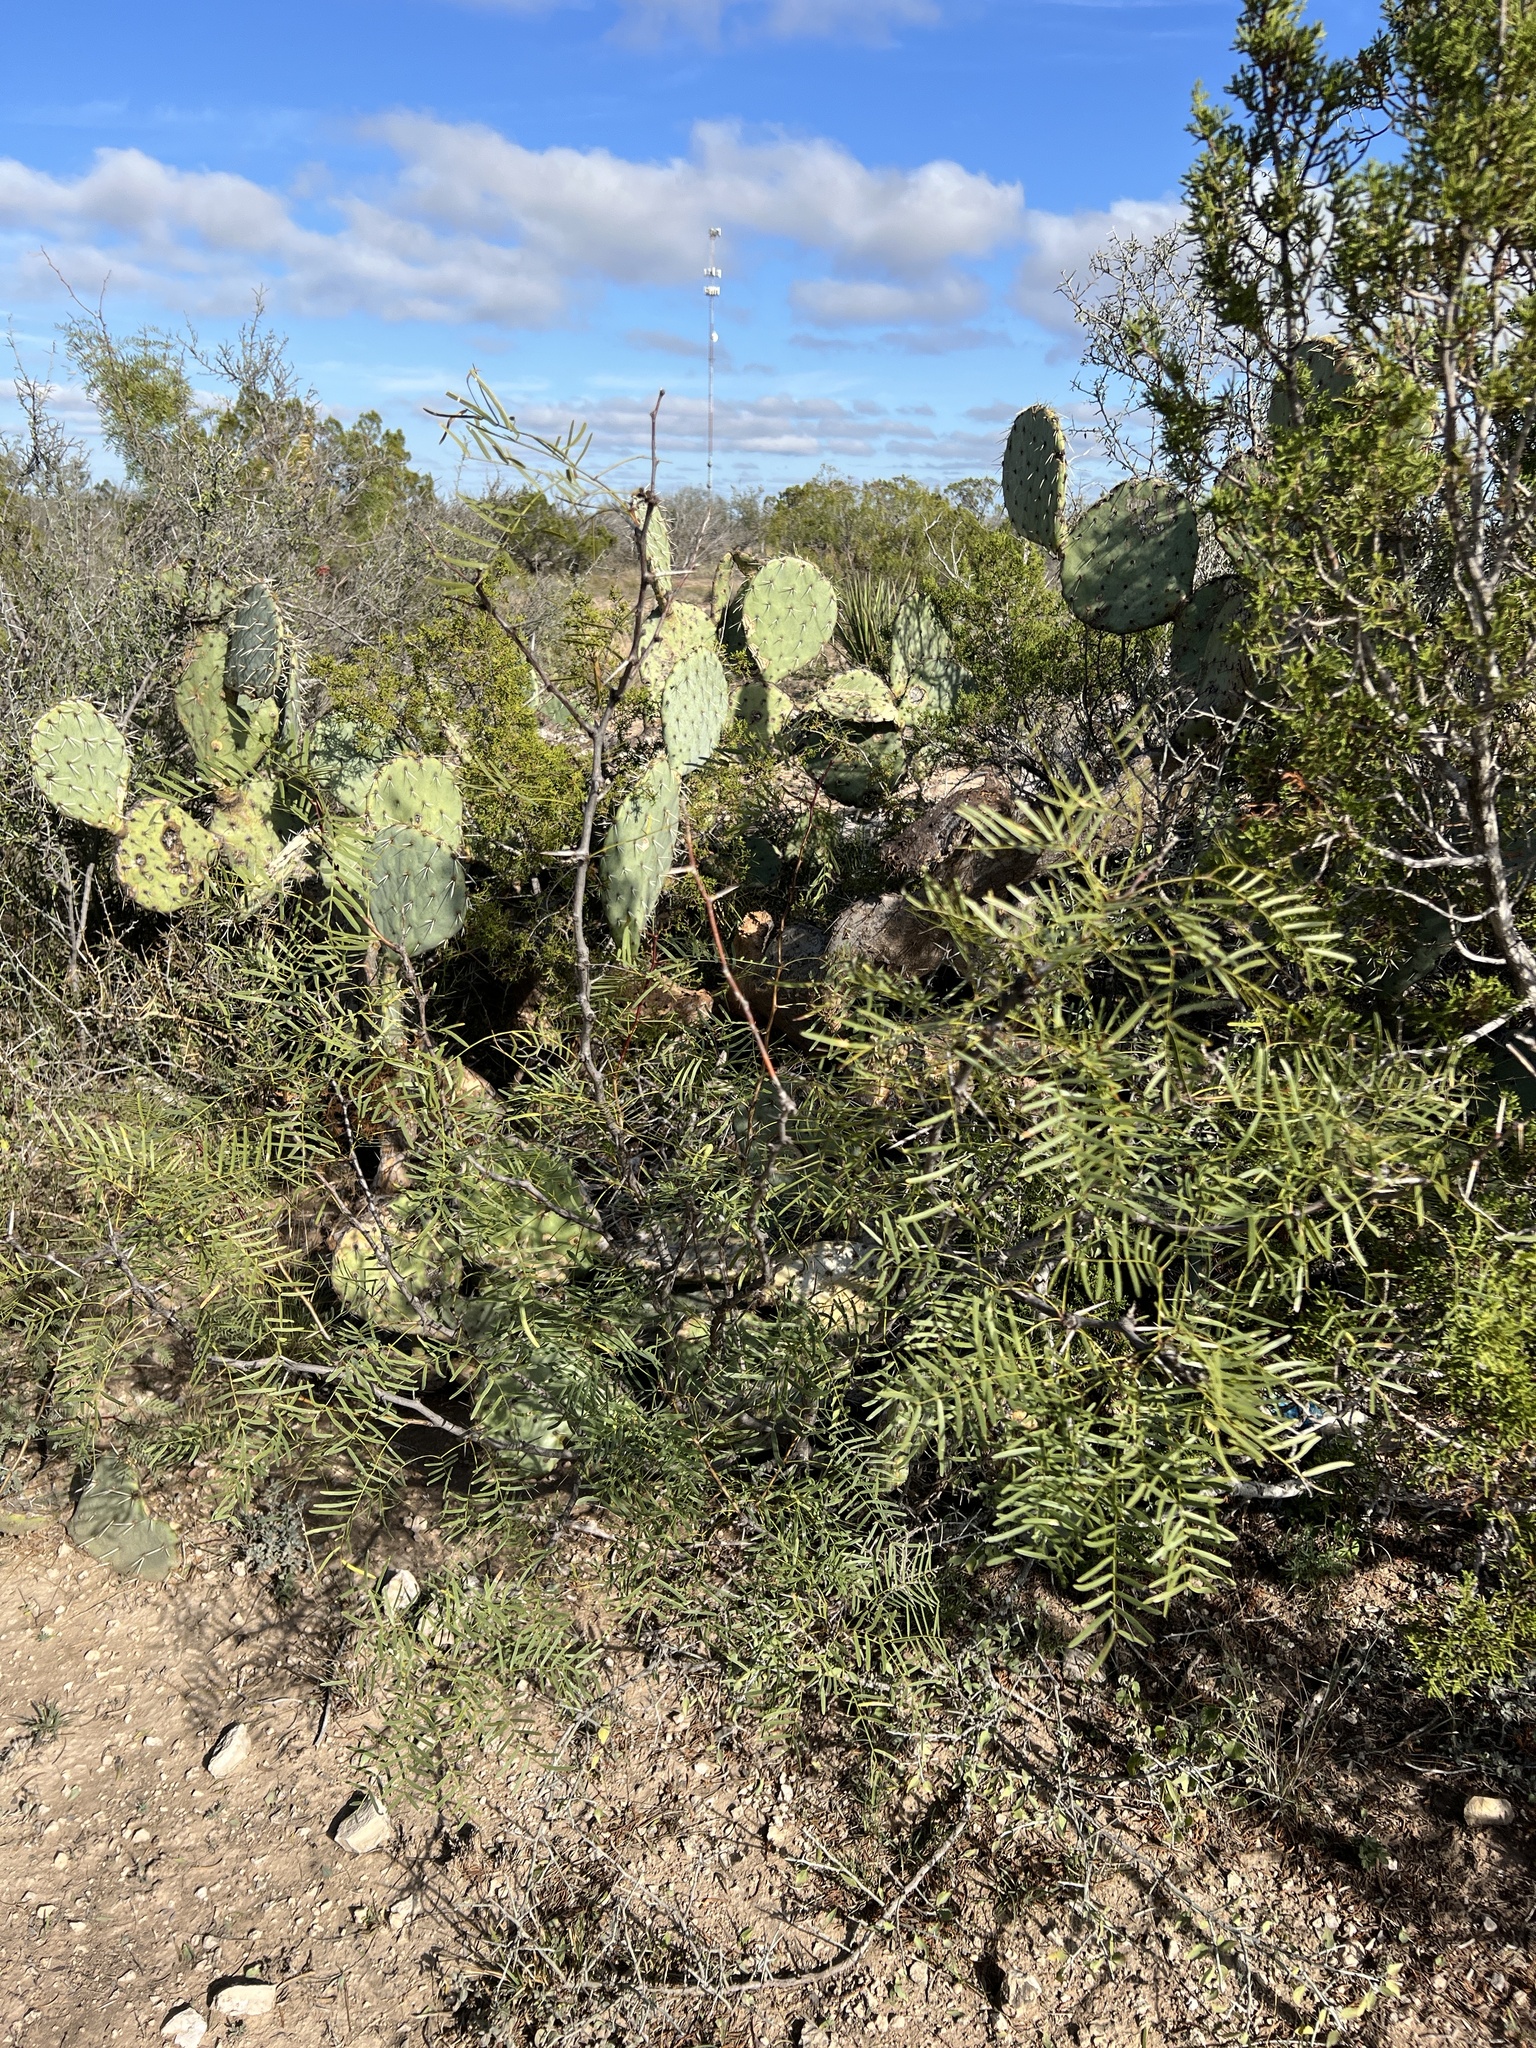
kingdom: Plantae
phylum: Tracheophyta
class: Magnoliopsida
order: Fabales
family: Fabaceae
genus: Prosopis
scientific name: Prosopis glandulosa
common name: Honey mesquite
